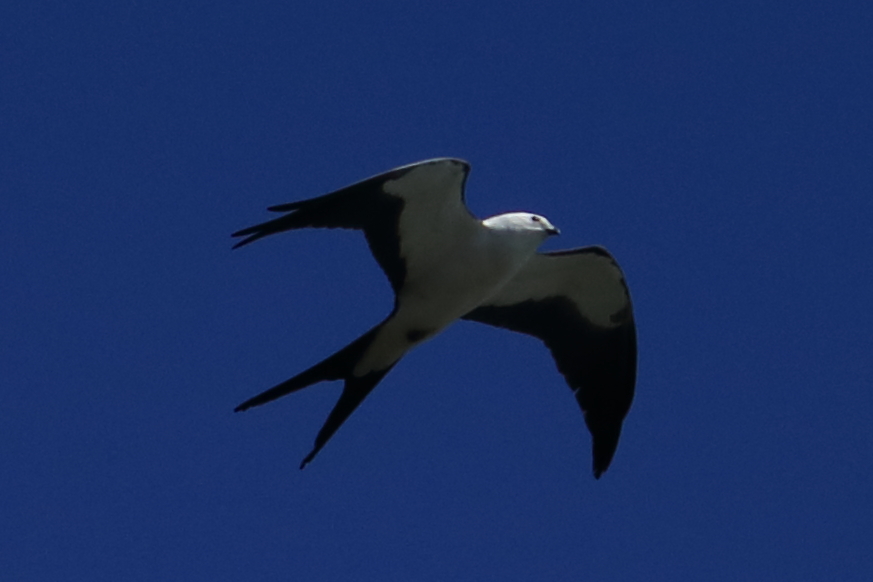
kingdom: Animalia
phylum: Chordata
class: Aves
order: Accipitriformes
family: Accipitridae
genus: Elanoides
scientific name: Elanoides forficatus
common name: Swallow-tailed kite
